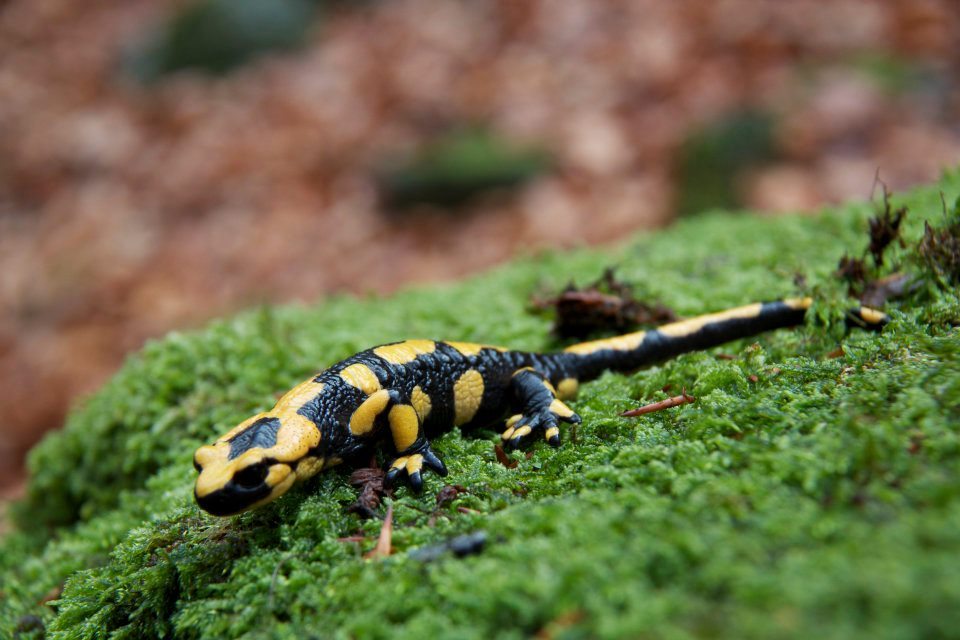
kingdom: Animalia
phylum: Chordata
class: Amphibia
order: Caudata
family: Salamandridae
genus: Salamandra
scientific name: Salamandra salamandra
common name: Fire salamander
